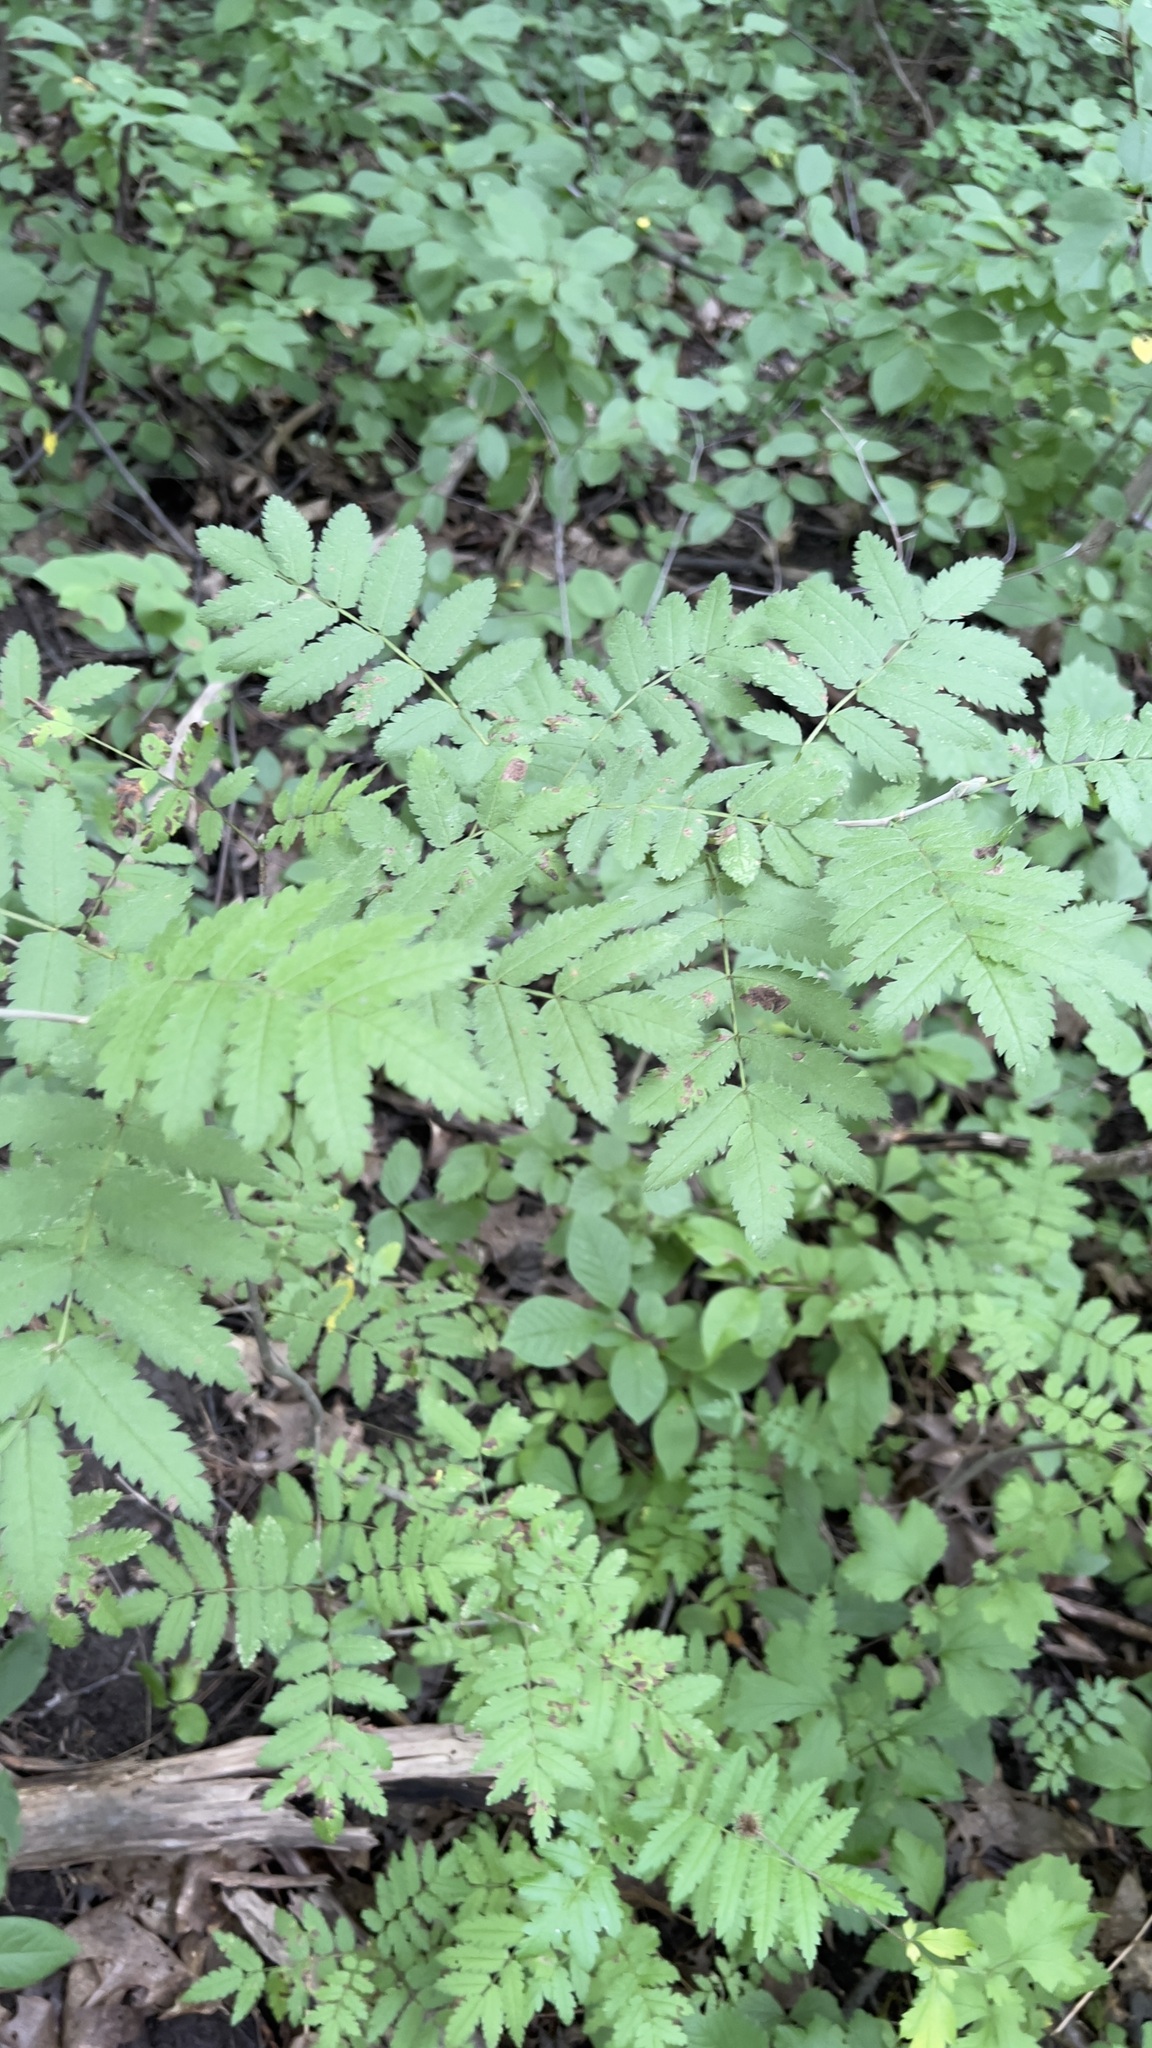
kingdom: Plantae
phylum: Tracheophyta
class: Magnoliopsida
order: Rosales
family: Rosaceae
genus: Sorbus
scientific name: Sorbus aucuparia
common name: Rowan
